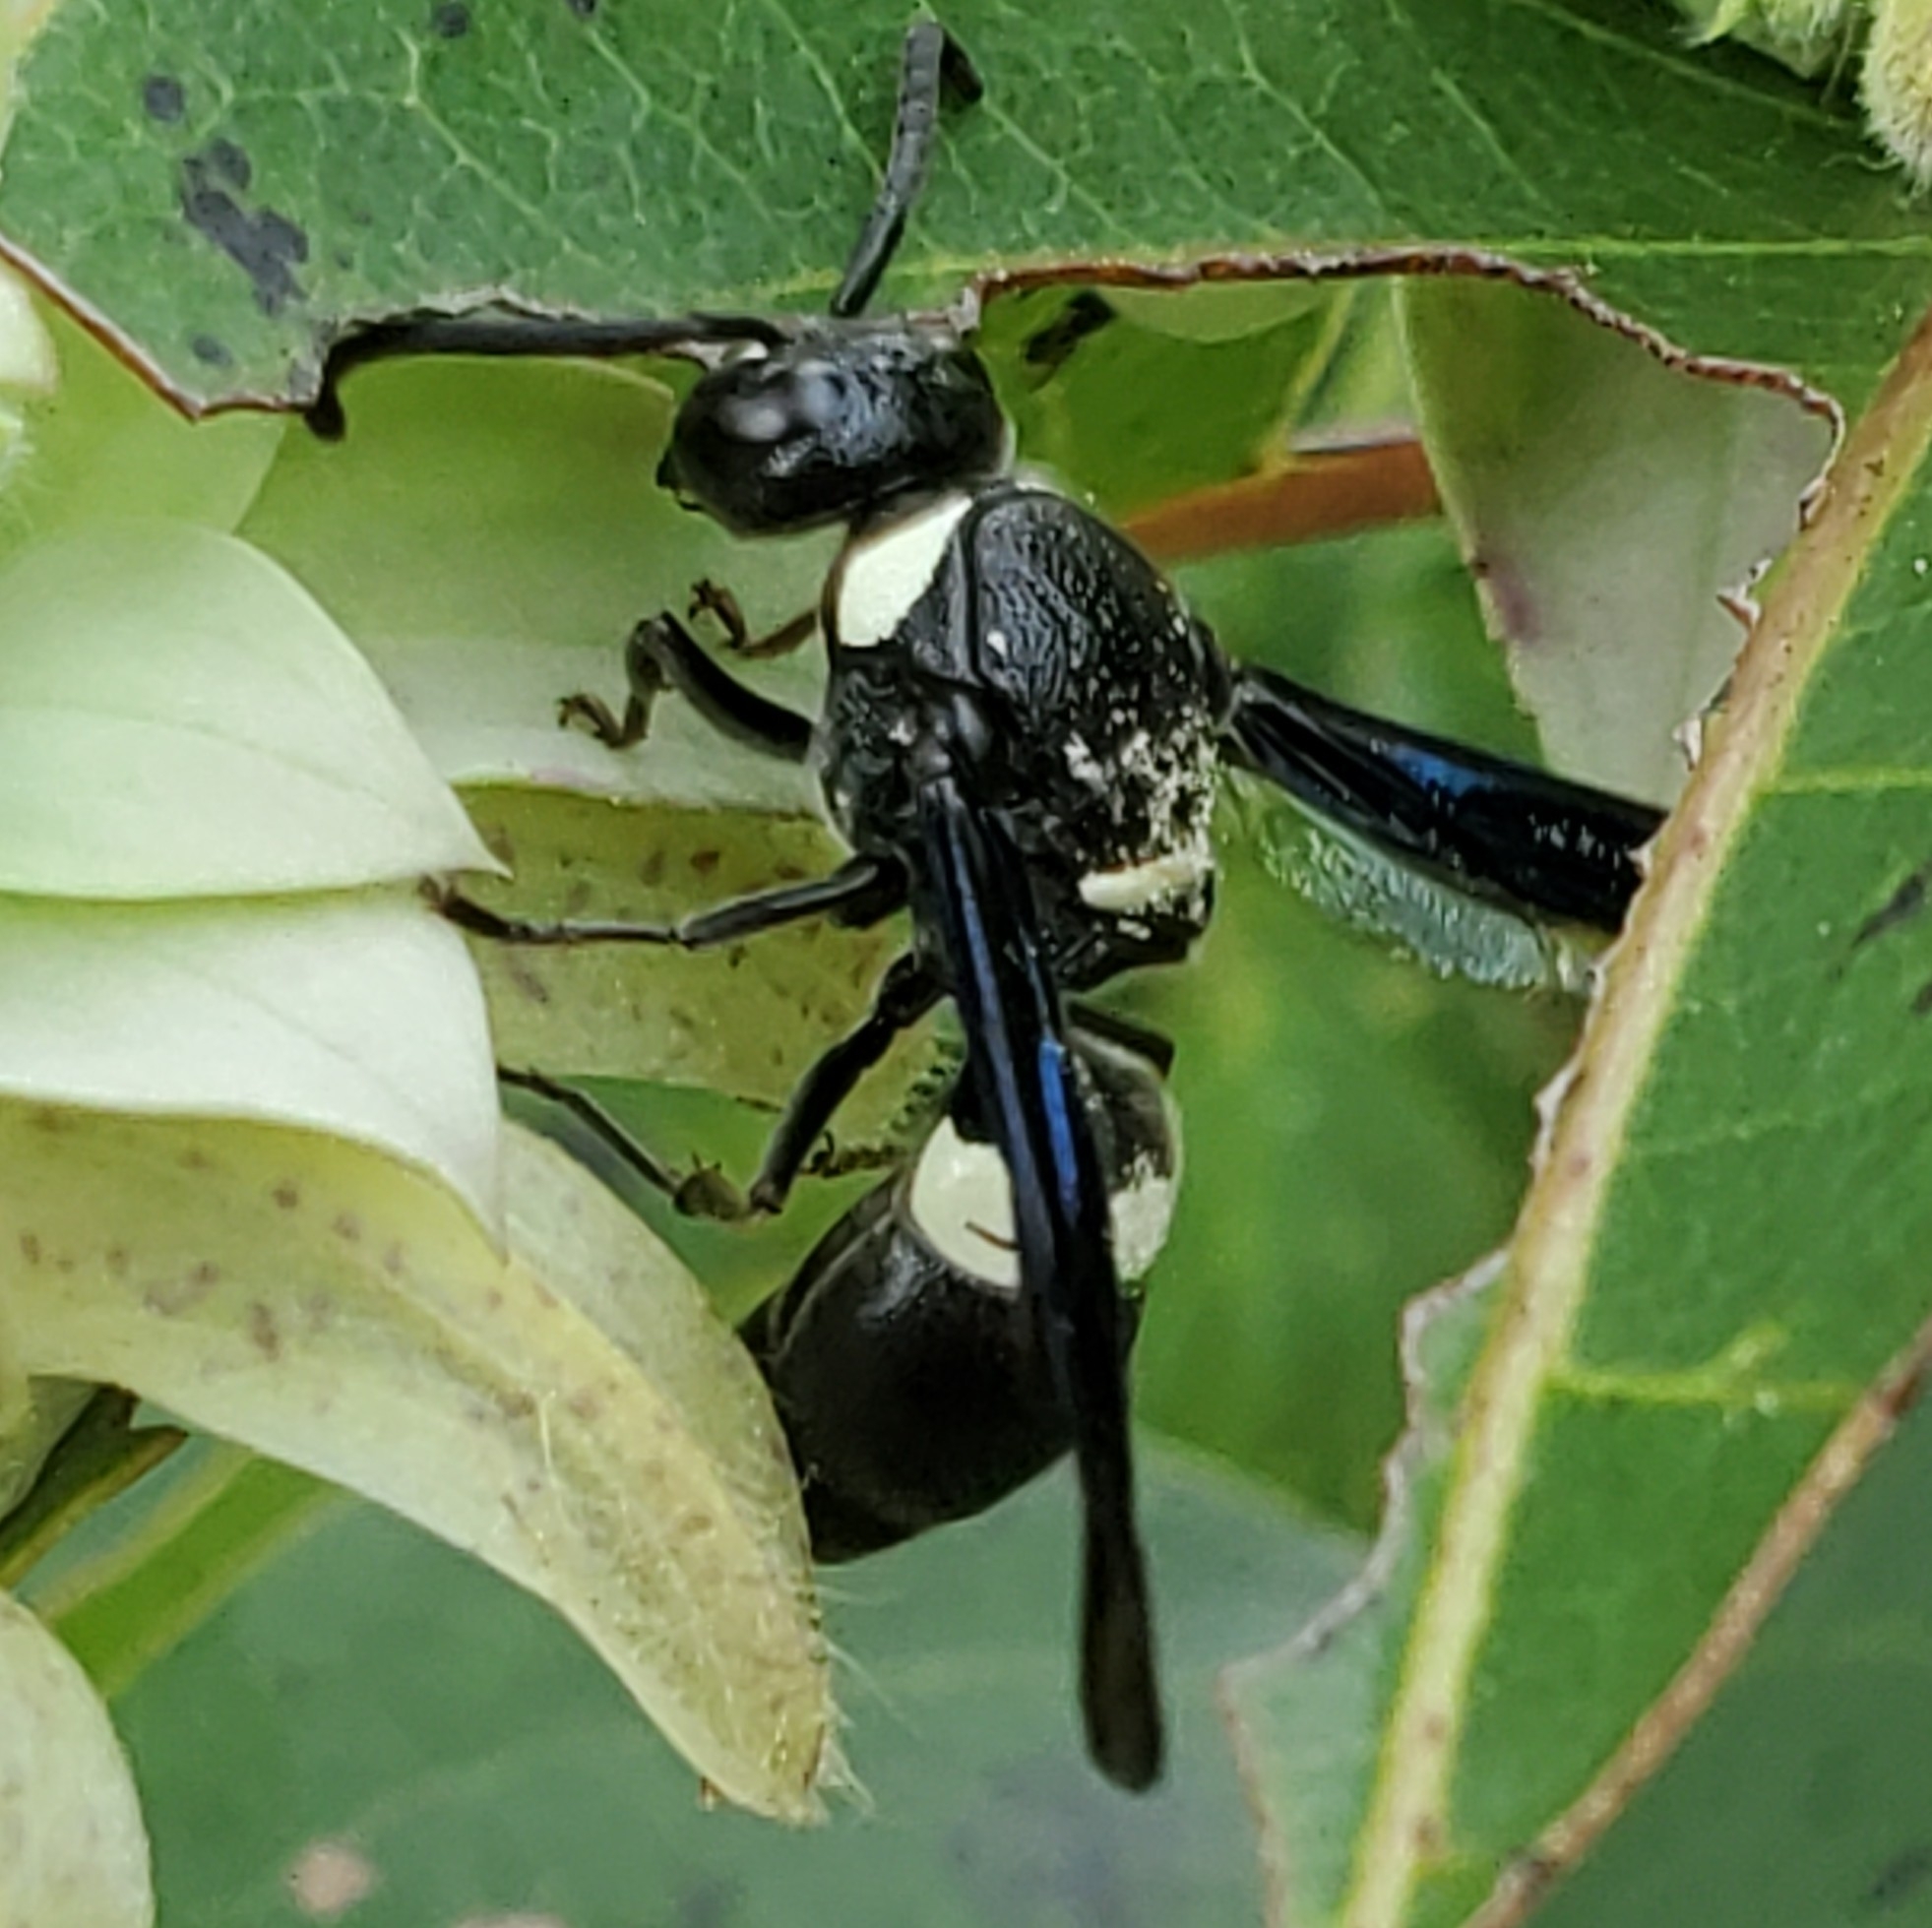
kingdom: Animalia
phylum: Arthropoda
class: Insecta
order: Hymenoptera
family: Eumenidae
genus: Monobia
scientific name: Monobia quadridens
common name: Four-toothed mason wasp
